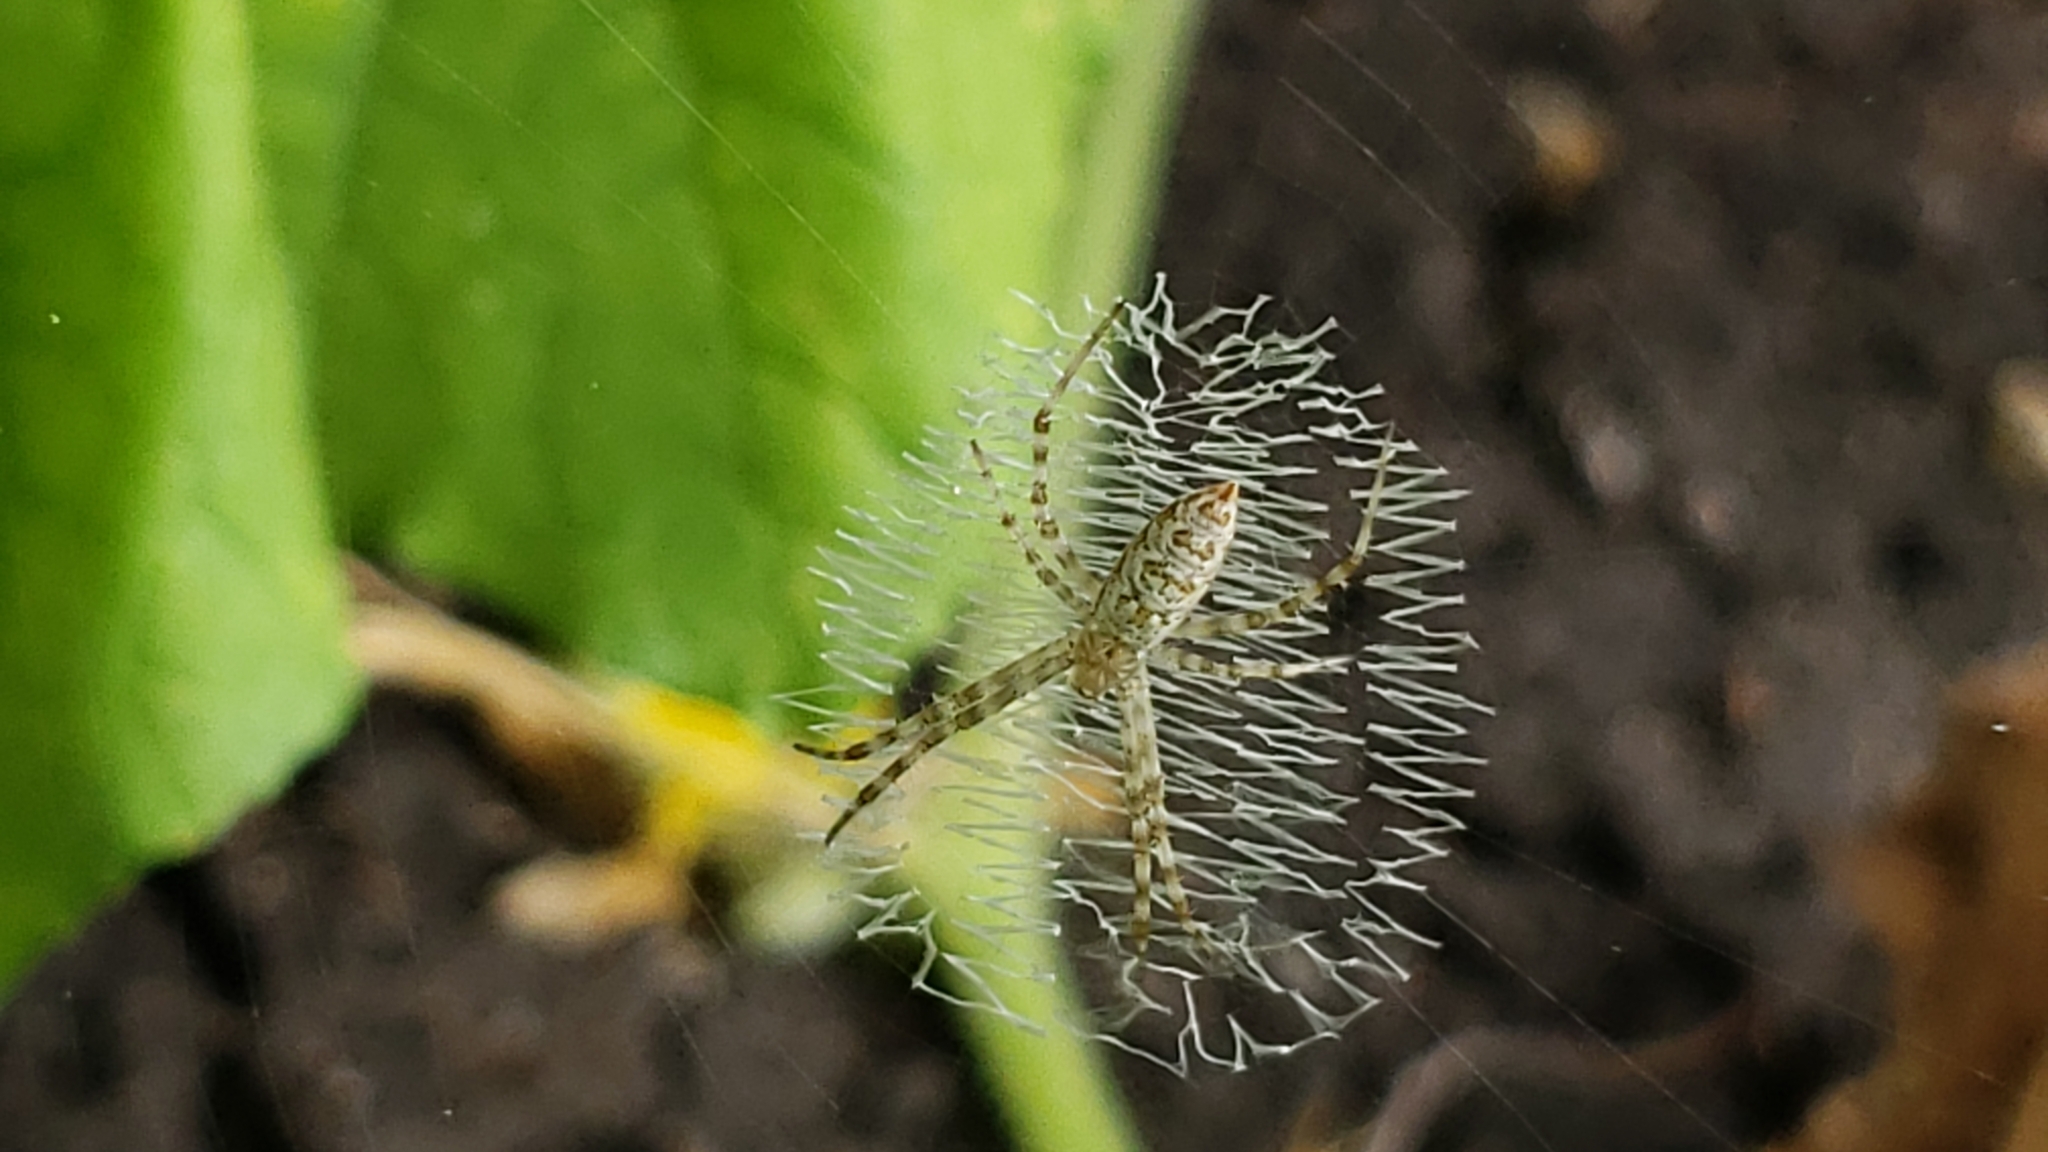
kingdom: Animalia
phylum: Arthropoda
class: Arachnida
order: Araneae
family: Araneidae
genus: Argiope
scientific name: Argiope aurantia
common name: Orb weavers
